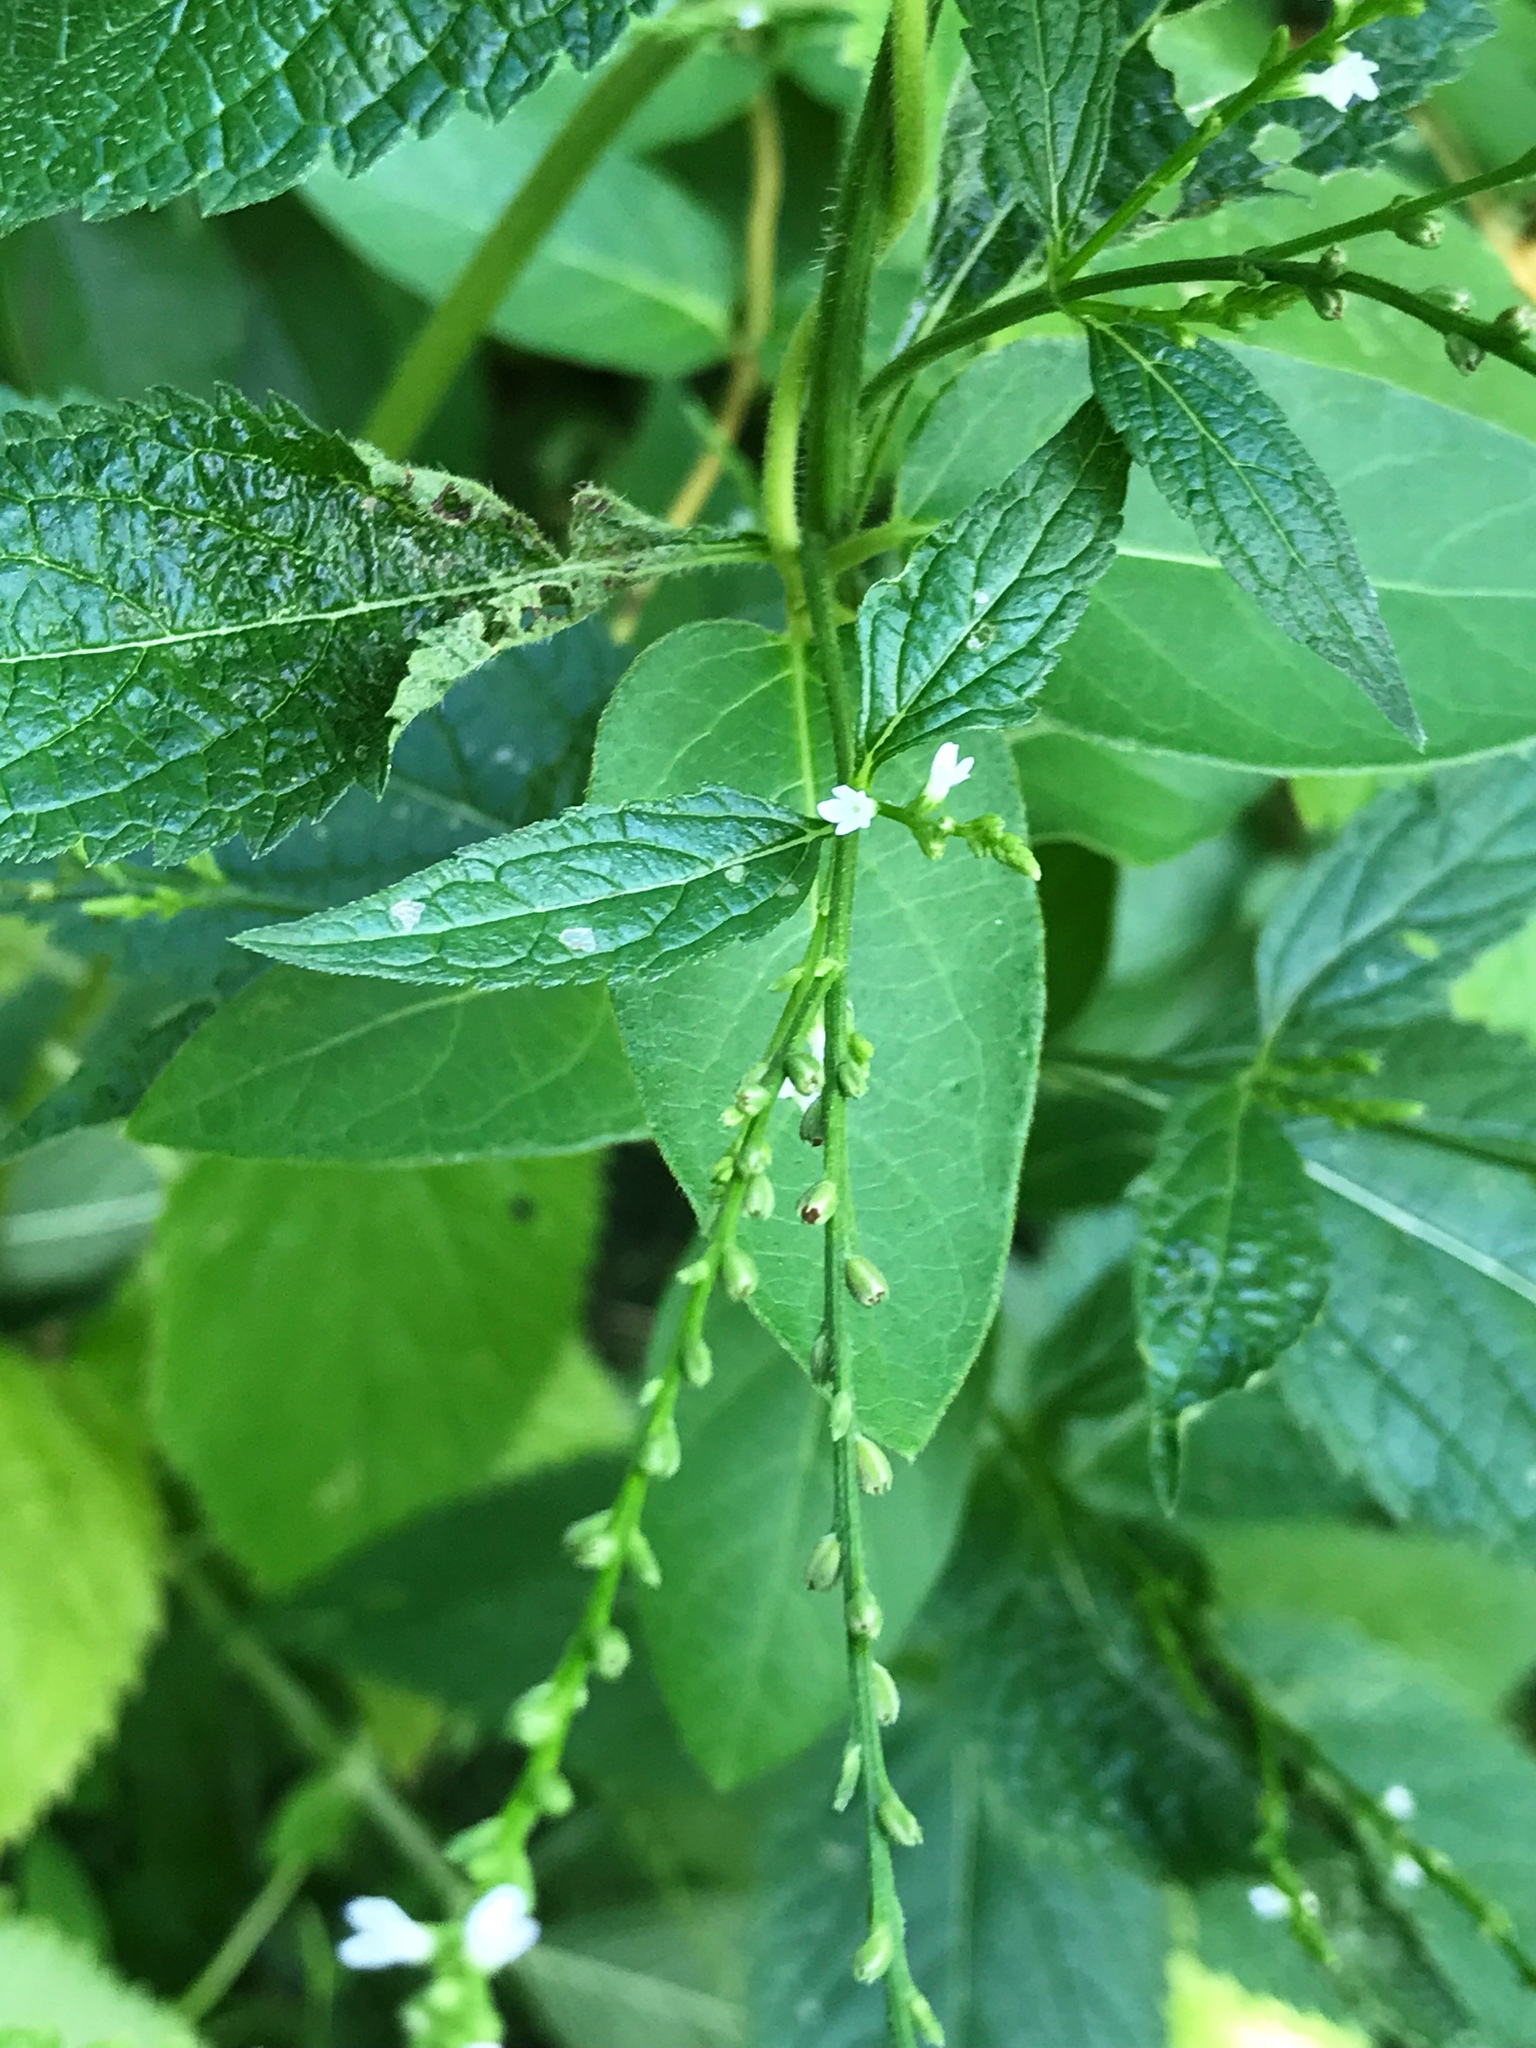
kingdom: Plantae
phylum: Tracheophyta
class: Magnoliopsida
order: Lamiales
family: Verbenaceae
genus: Verbena
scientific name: Verbena urticifolia
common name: Nettle-leaved vervain
